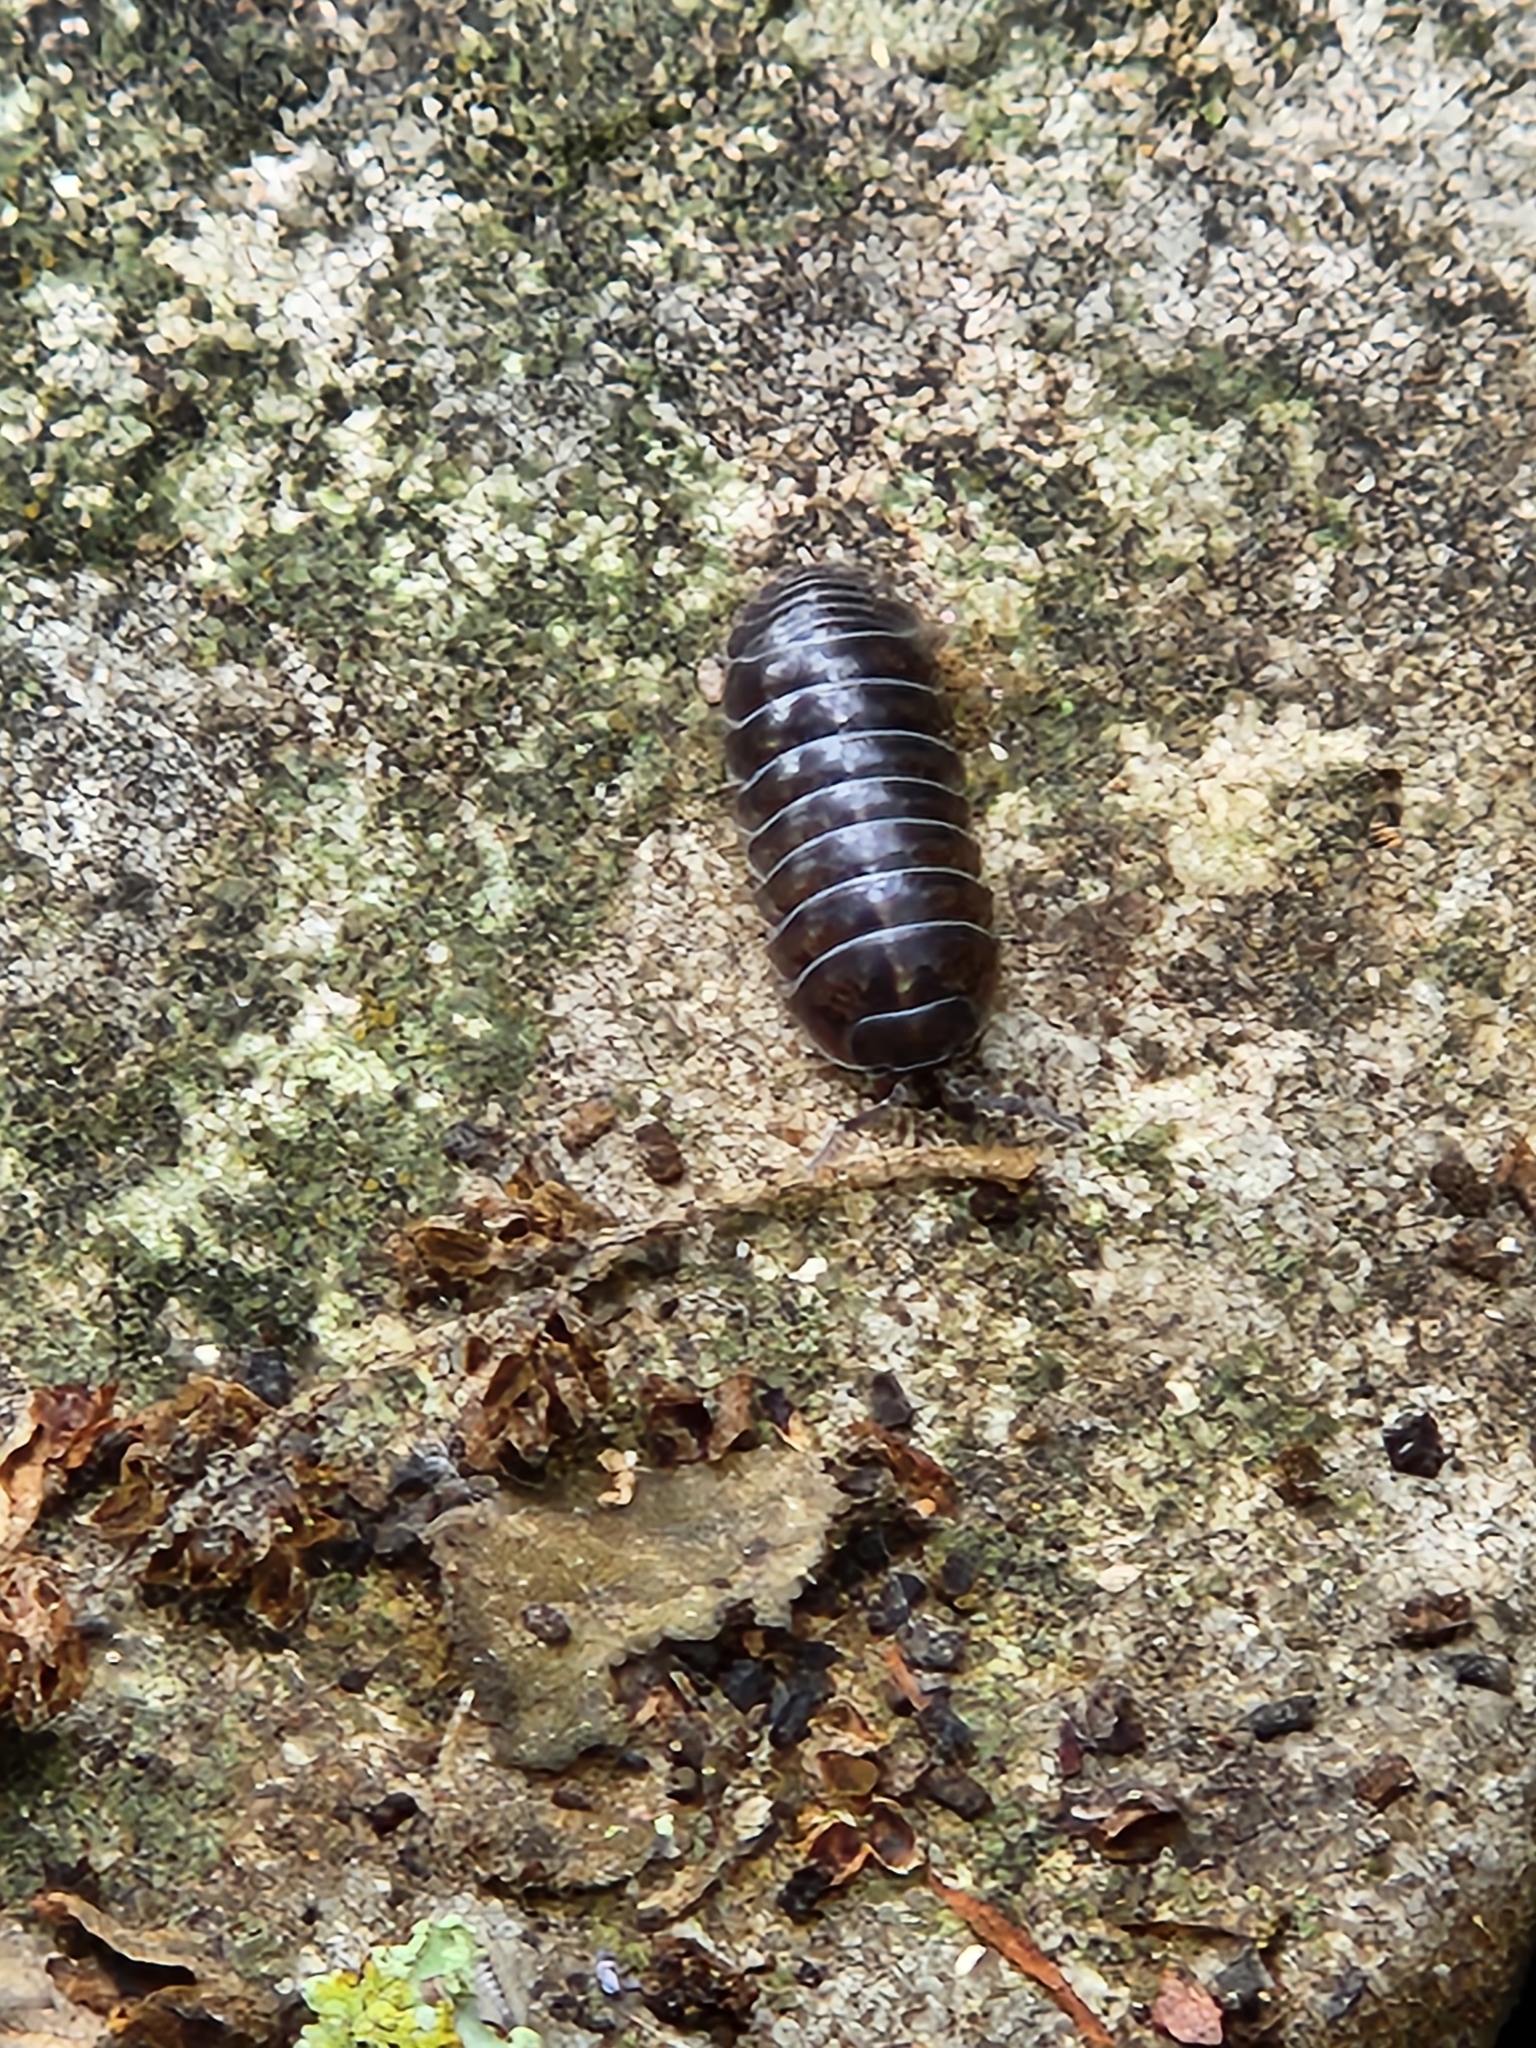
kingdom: Animalia
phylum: Arthropoda
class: Malacostraca
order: Isopoda
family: Armadillidiidae
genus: Armadillidium
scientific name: Armadillidium vulgare
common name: Common pill woodlouse
